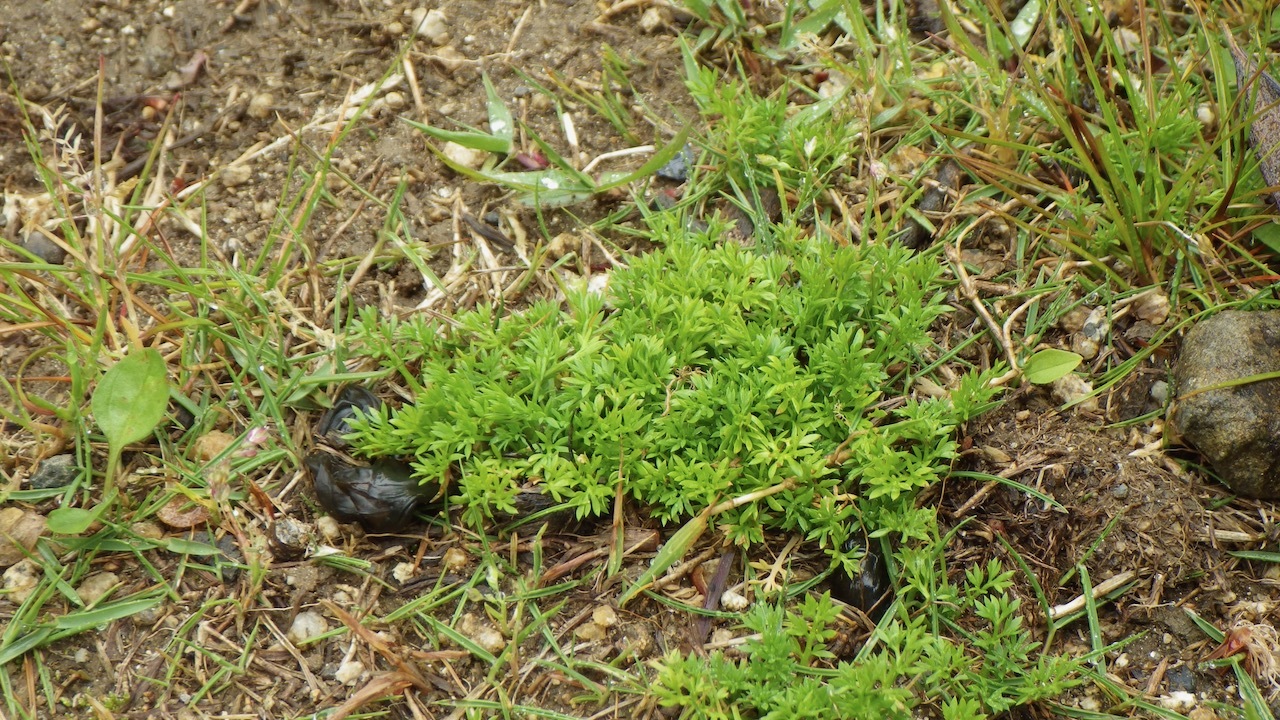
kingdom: Plantae
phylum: Tracheophyta
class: Magnoliopsida
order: Asterales
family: Asteraceae
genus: Soliva
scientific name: Soliva sessilis
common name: Field burrweed
